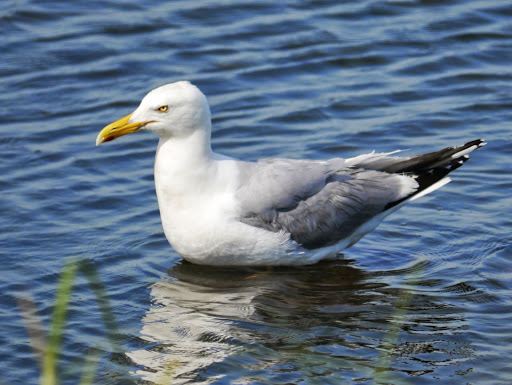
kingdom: Animalia
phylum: Chordata
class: Aves
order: Charadriiformes
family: Laridae
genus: Larus
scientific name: Larus argentatus
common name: Herring gull
